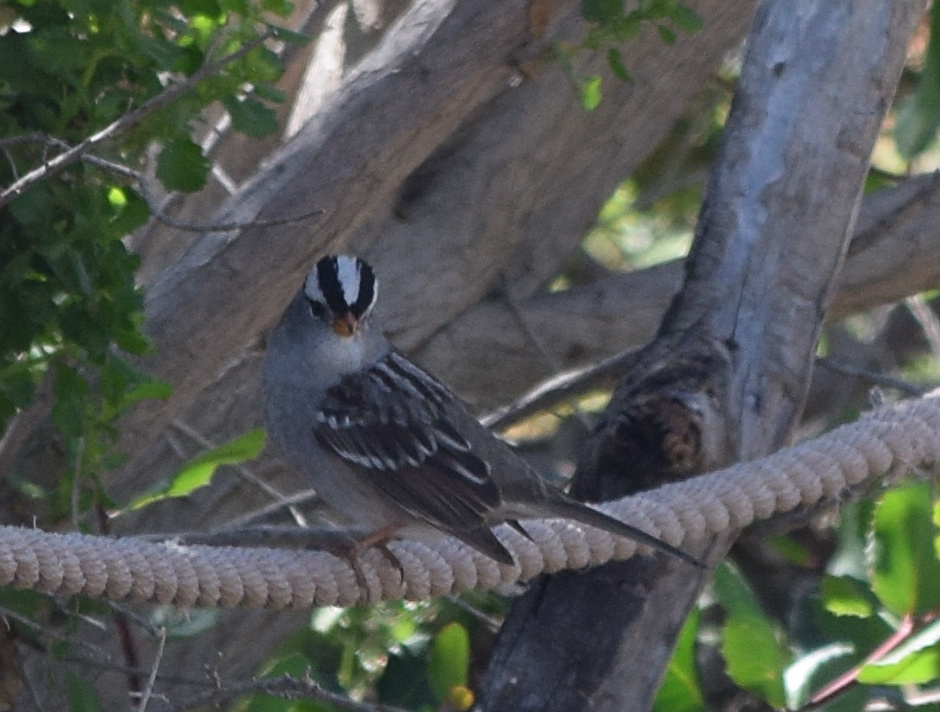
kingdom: Animalia
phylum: Chordata
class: Aves
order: Passeriformes
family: Passerellidae
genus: Zonotrichia
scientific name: Zonotrichia leucophrys
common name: White-crowned sparrow
